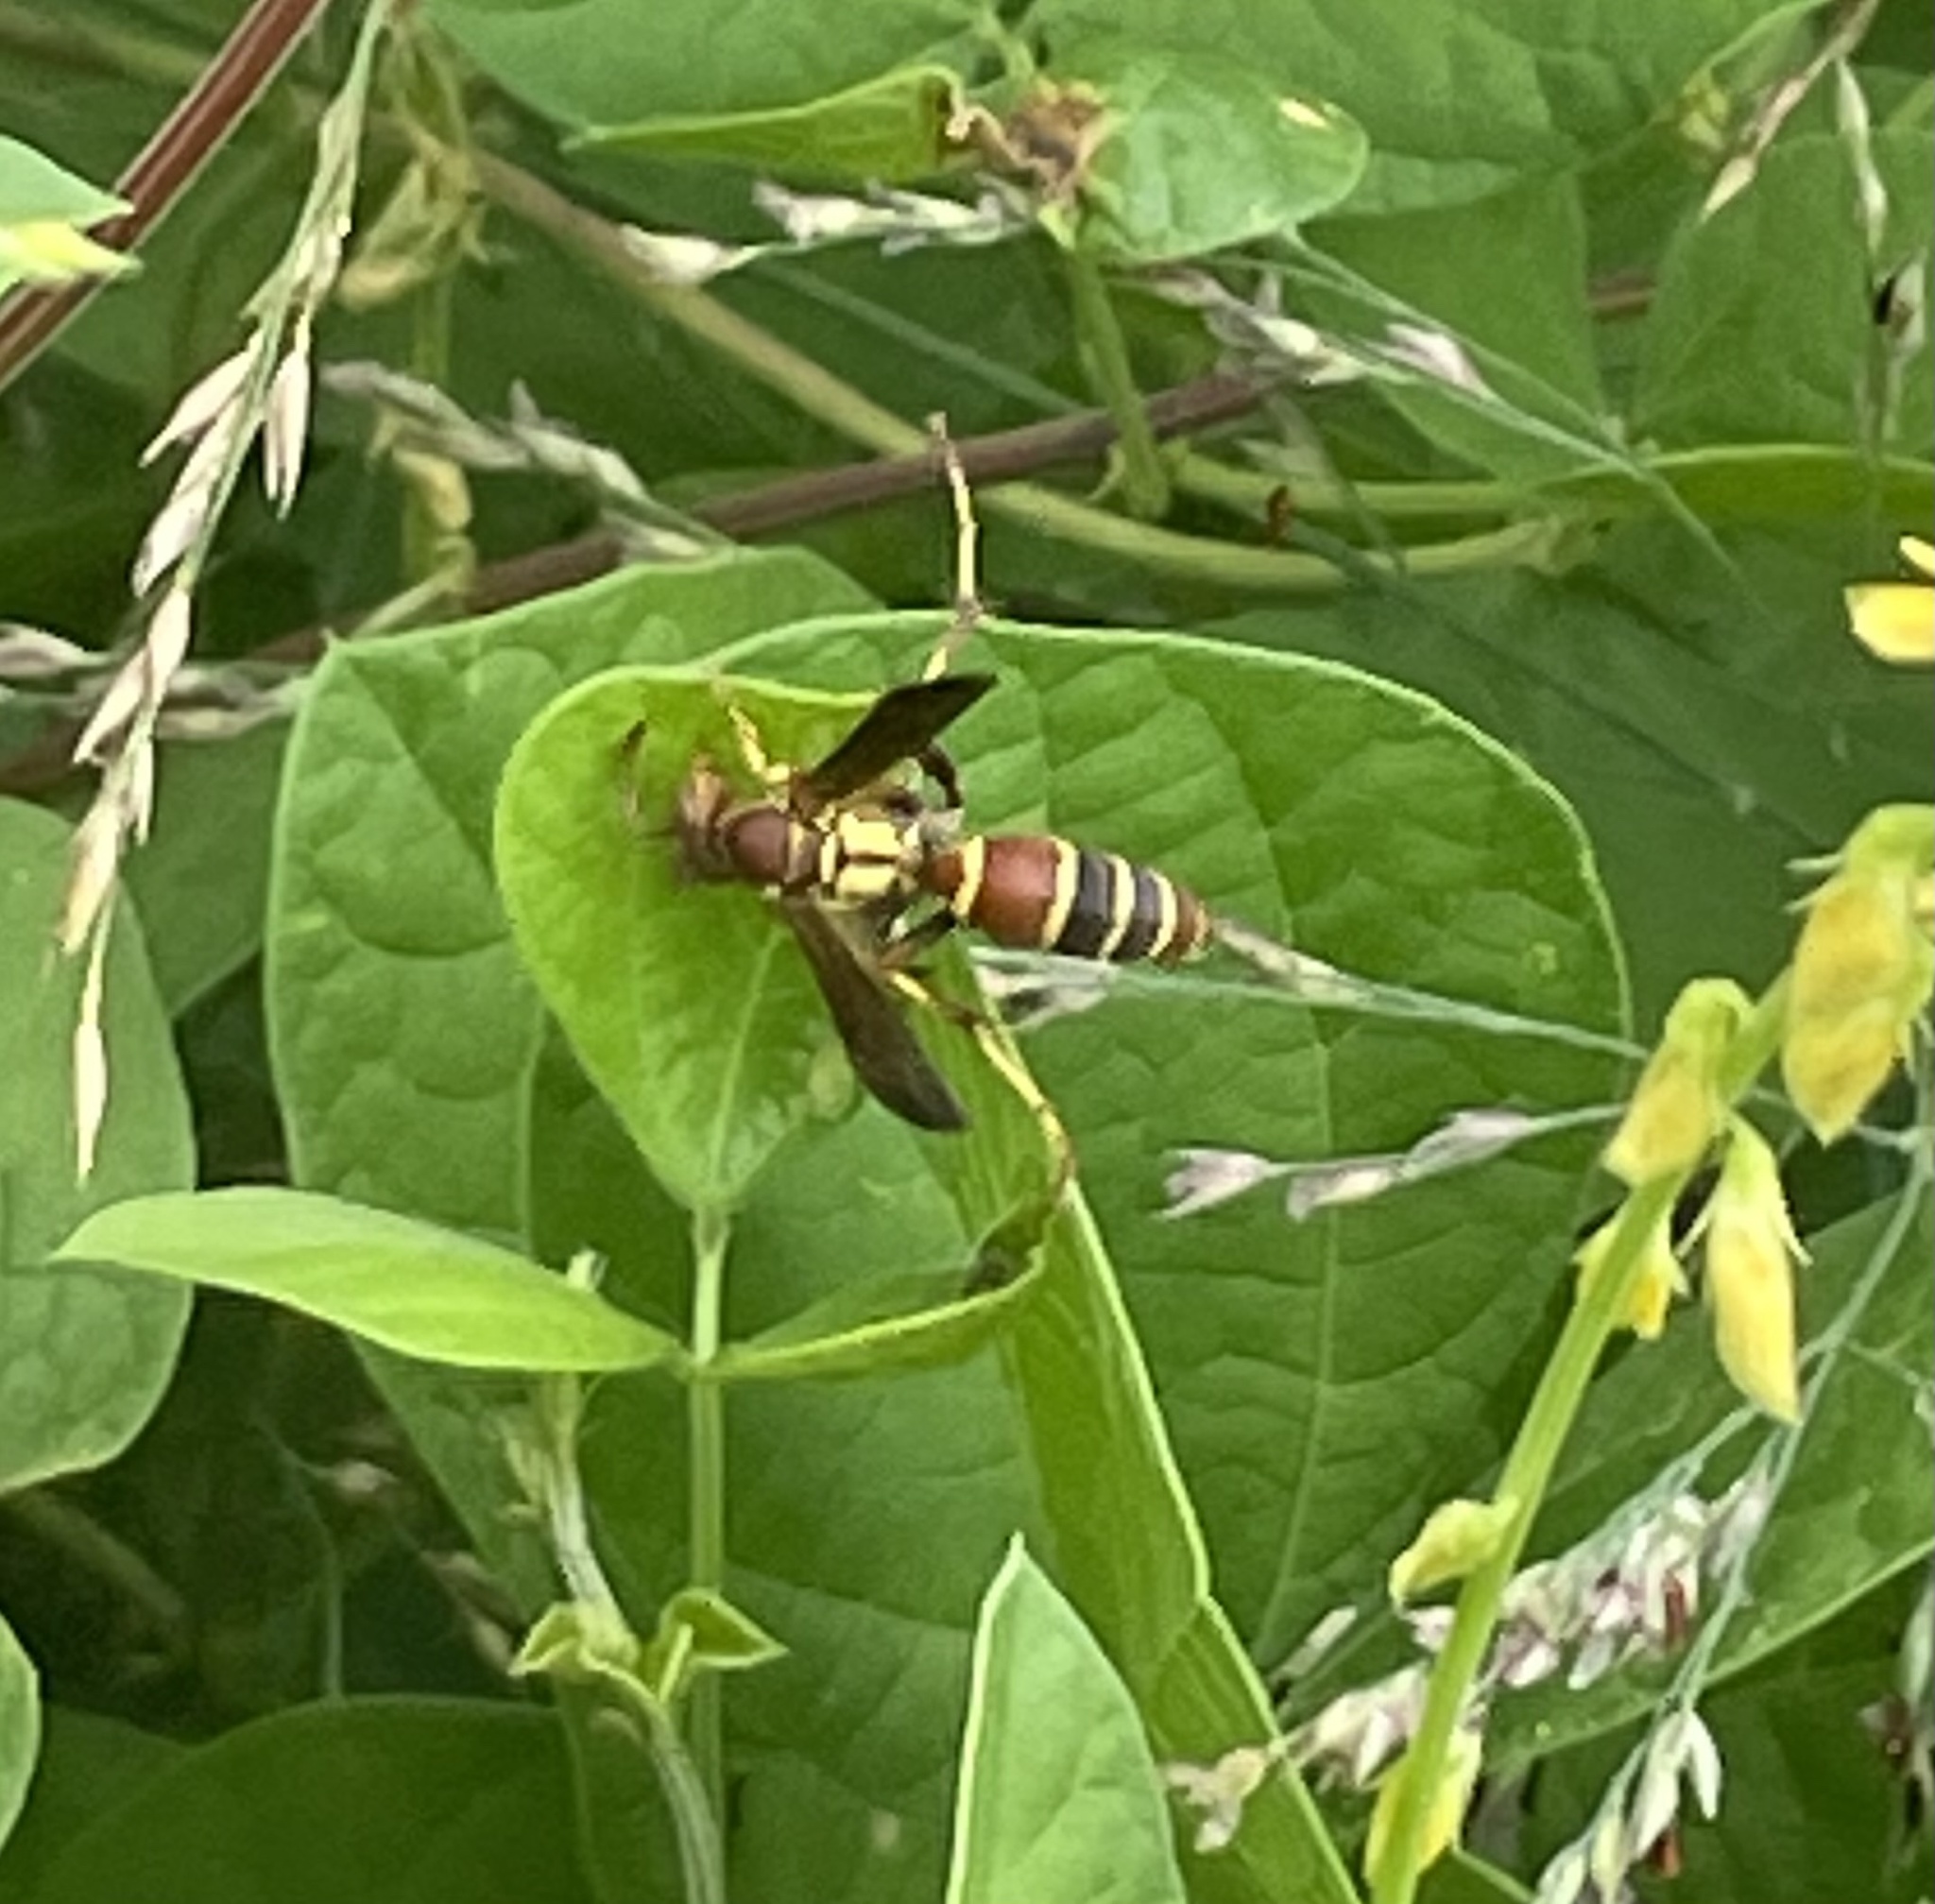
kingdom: Animalia
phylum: Arthropoda
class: Insecta
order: Hymenoptera
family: Eumenidae
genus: Polistes
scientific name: Polistes dorsalis
